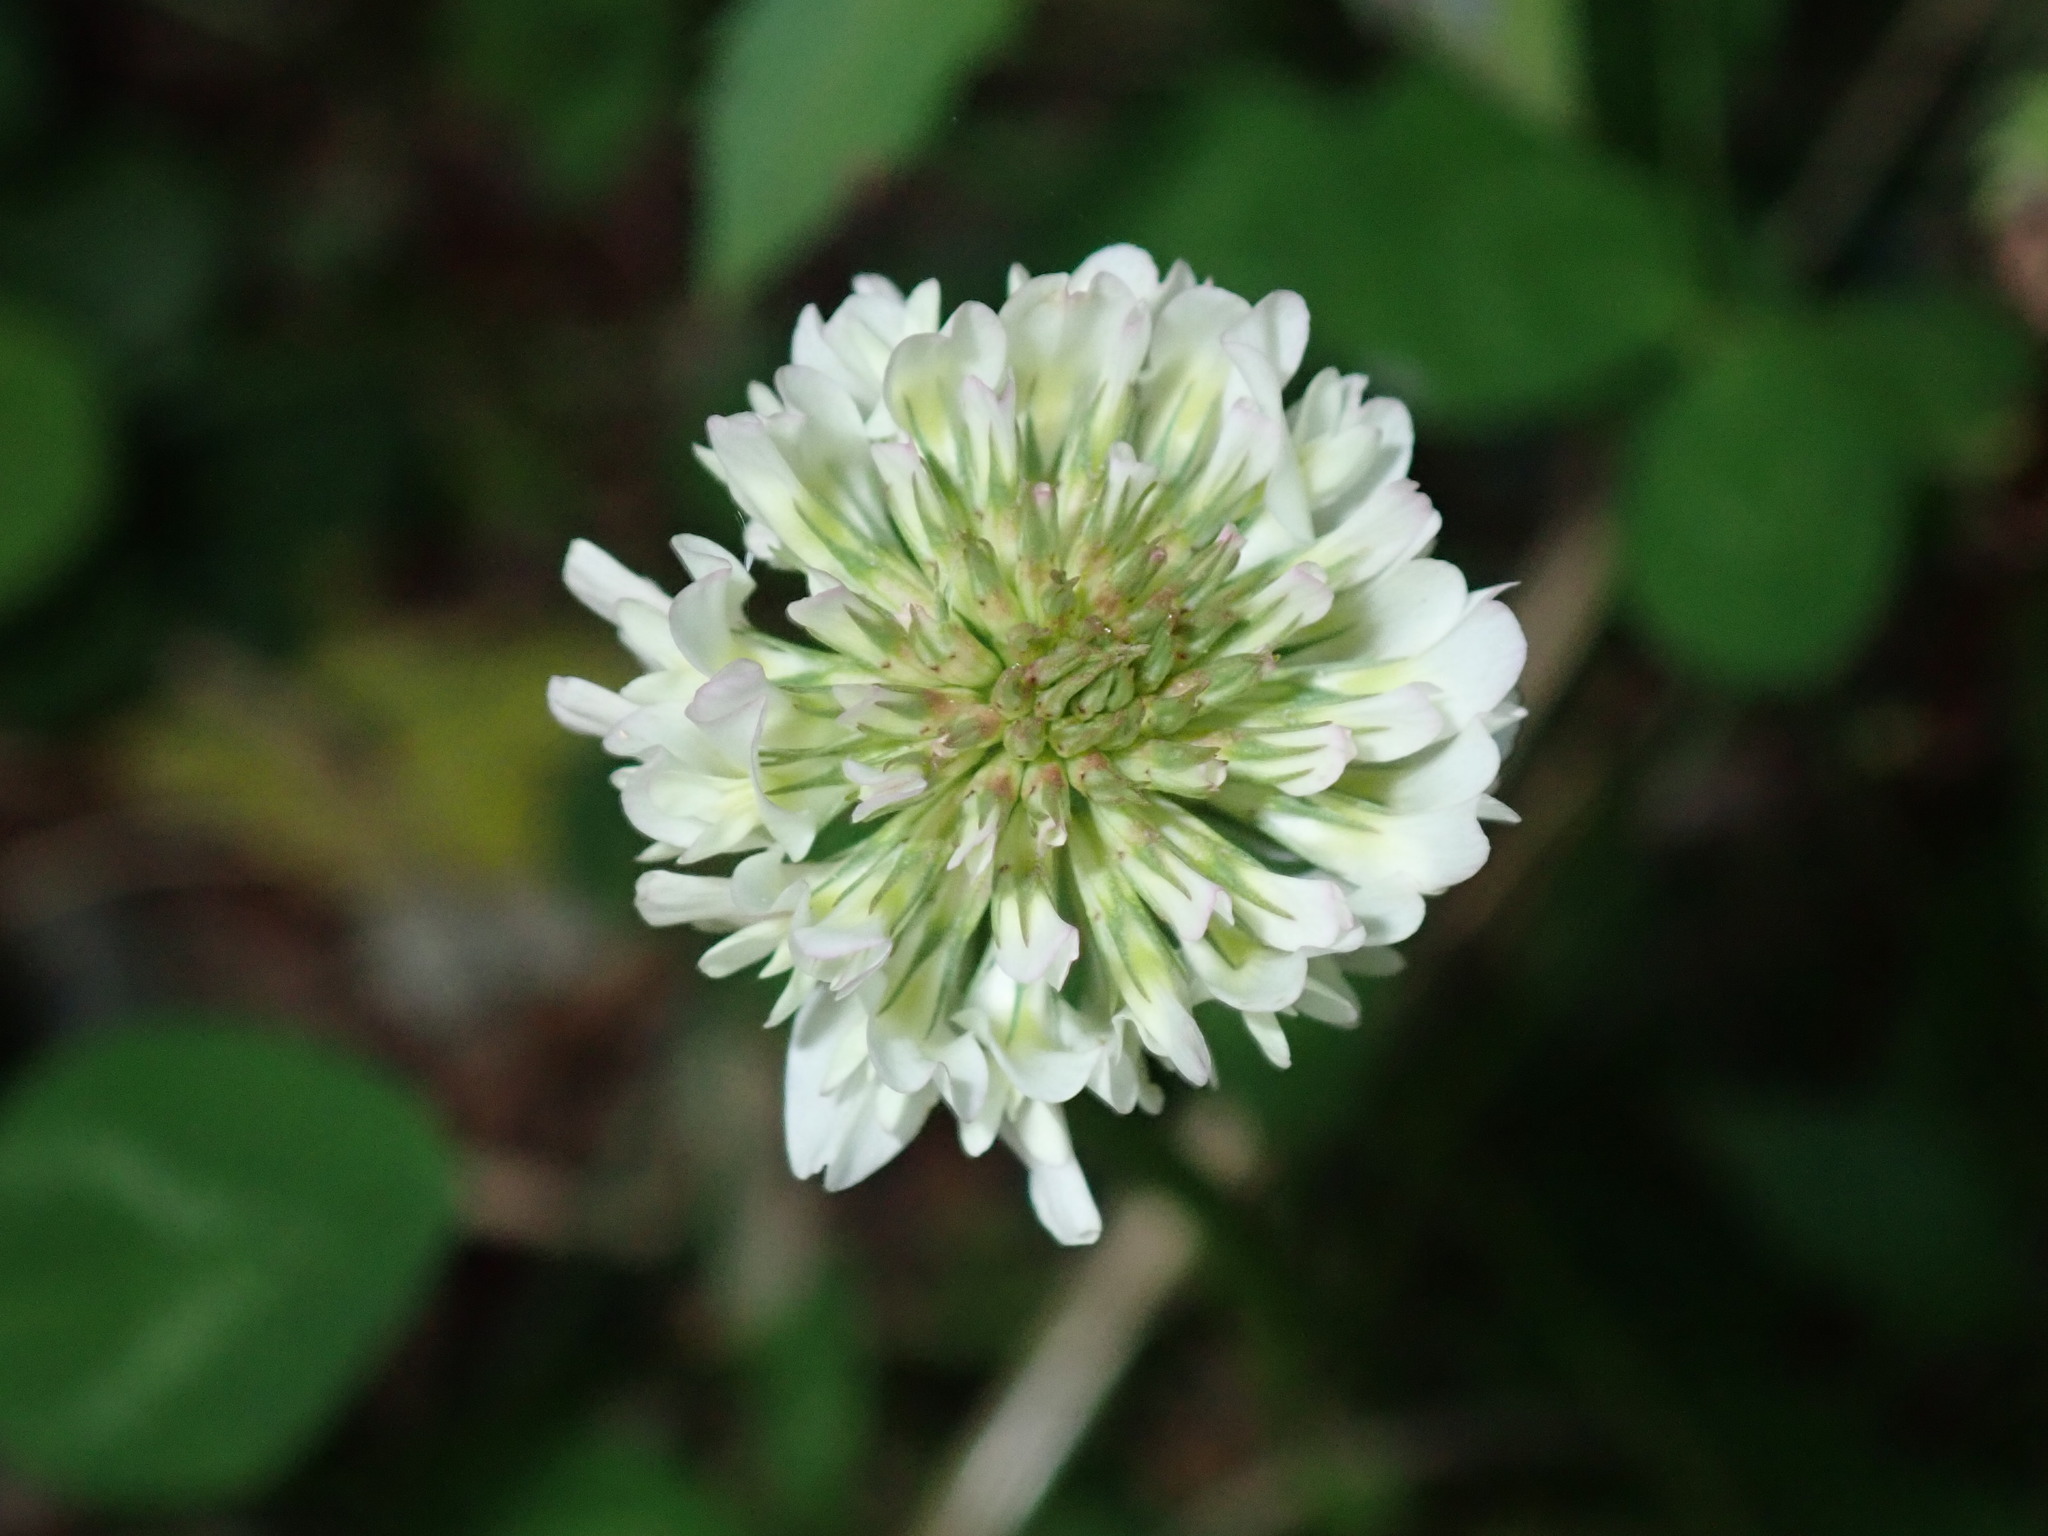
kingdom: Plantae
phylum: Tracheophyta
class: Magnoliopsida
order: Fabales
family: Fabaceae
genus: Trifolium
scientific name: Trifolium repens
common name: White clover
